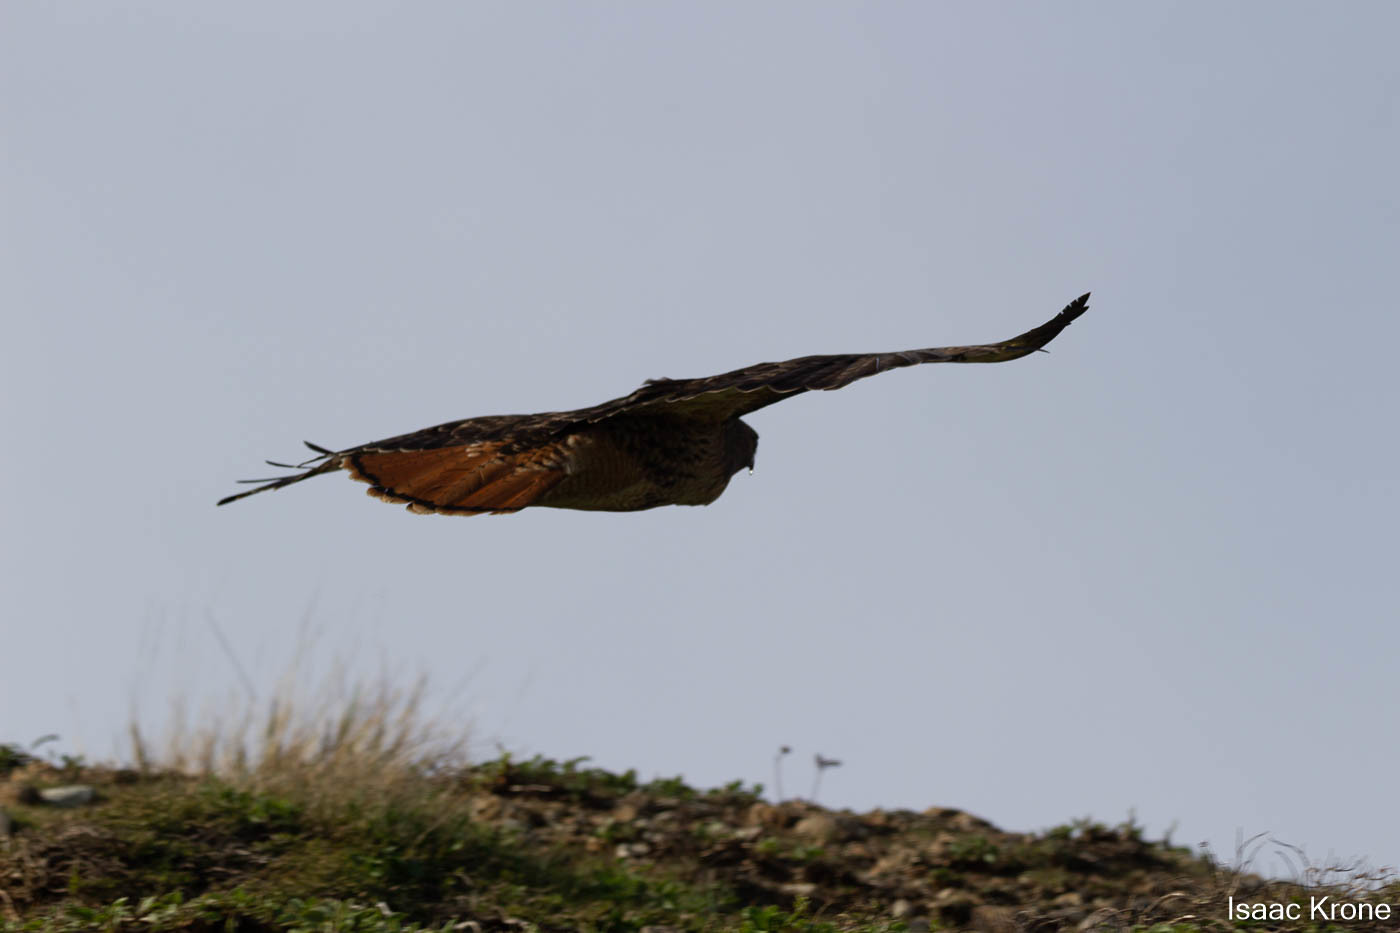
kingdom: Animalia
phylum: Chordata
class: Aves
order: Accipitriformes
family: Accipitridae
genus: Buteo
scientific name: Buteo jamaicensis
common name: Red-tailed hawk
